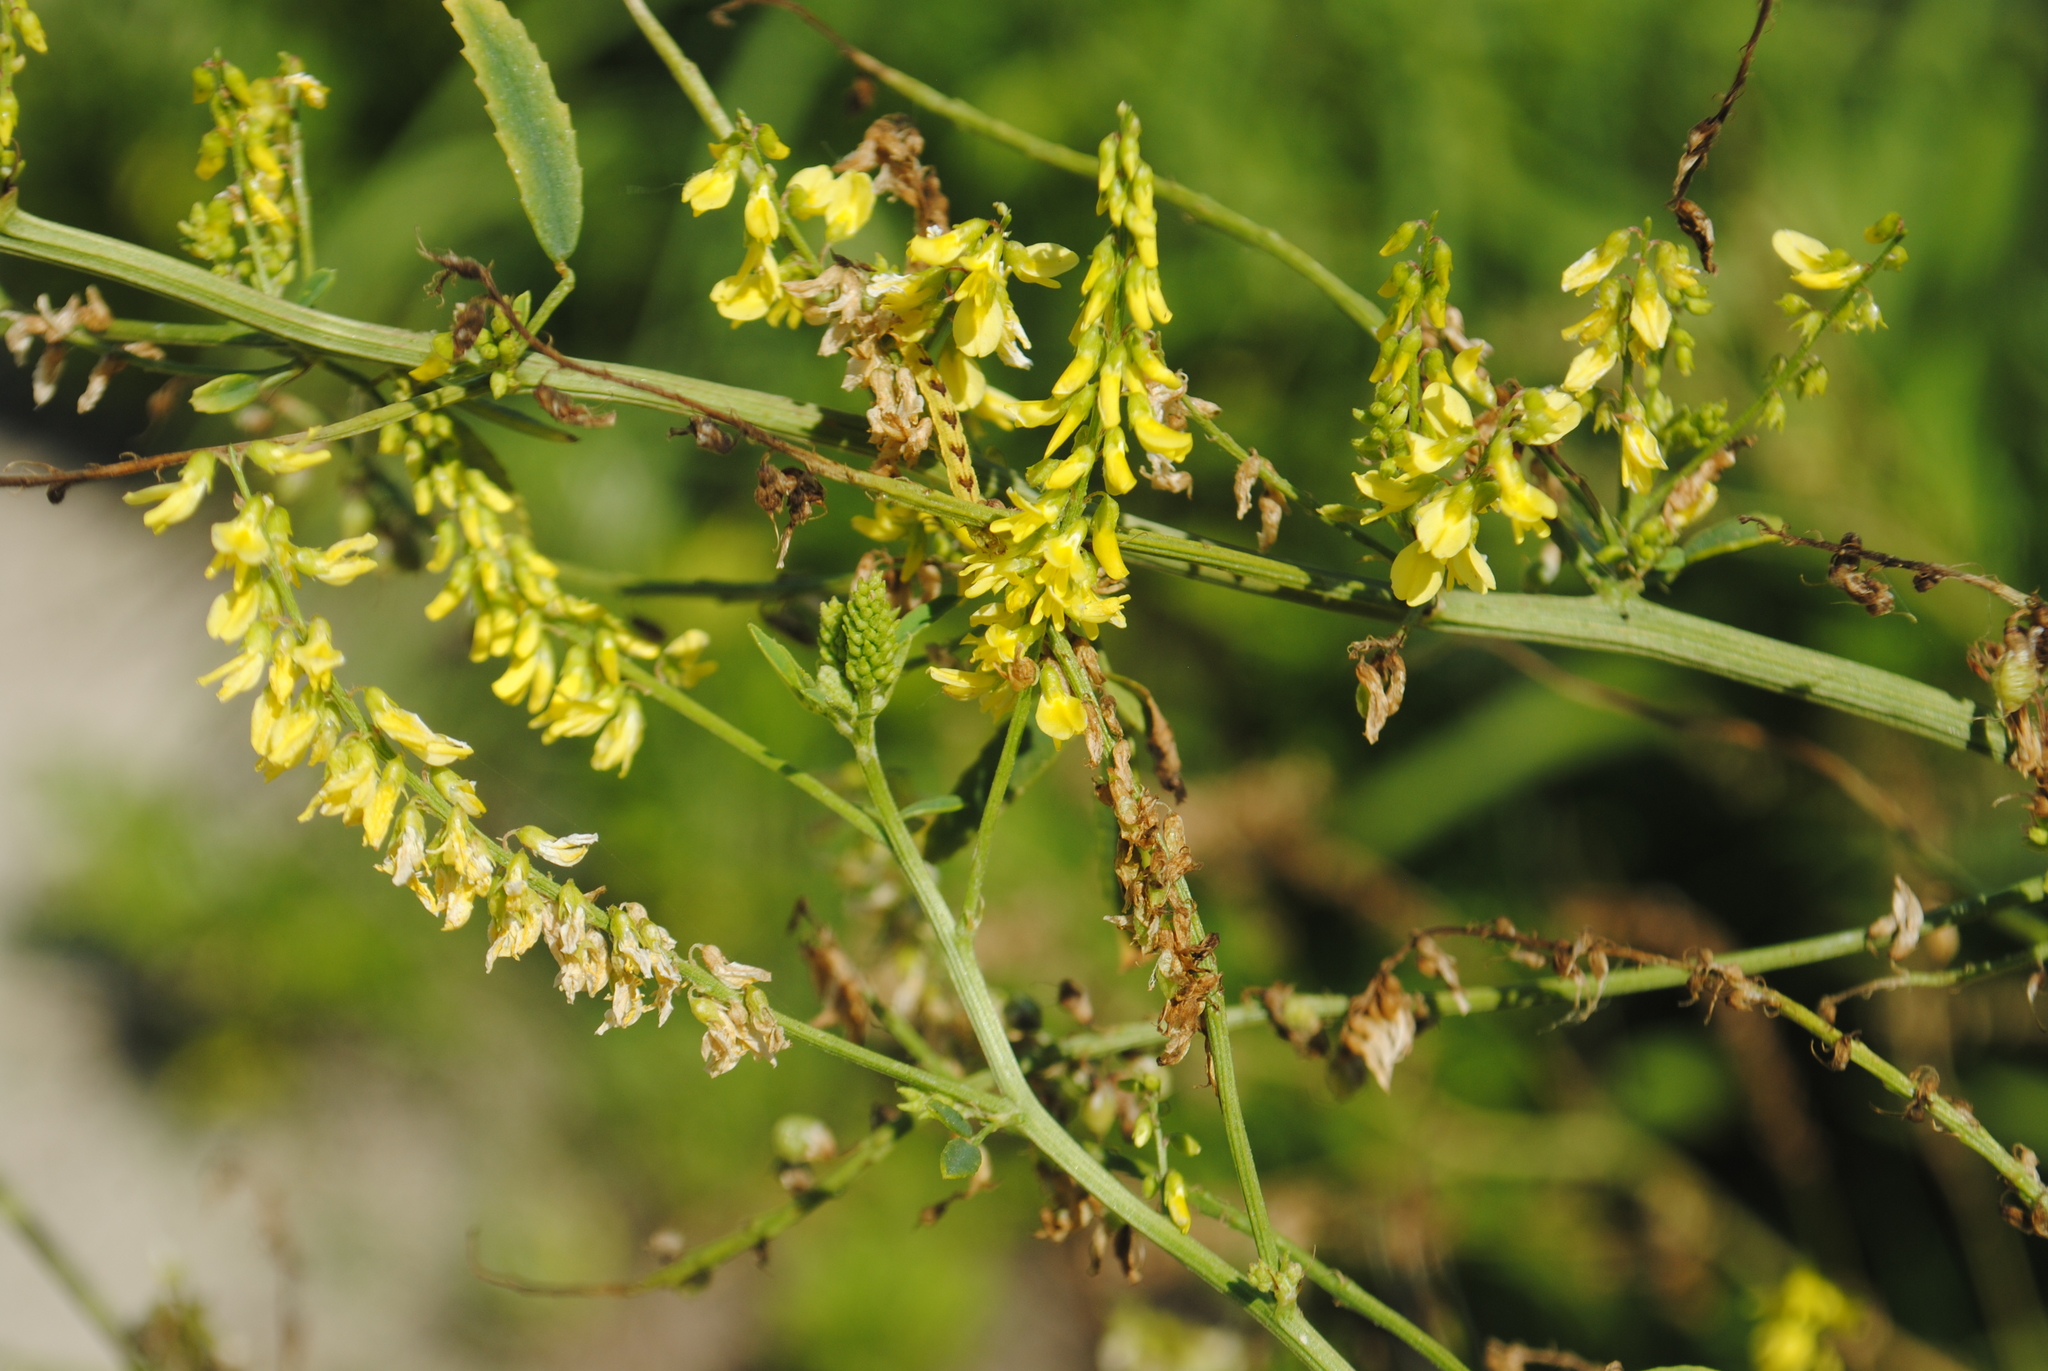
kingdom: Plantae
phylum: Tracheophyta
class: Magnoliopsida
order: Fabales
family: Fabaceae
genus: Melilotus
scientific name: Melilotus officinalis
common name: Sweetclover
